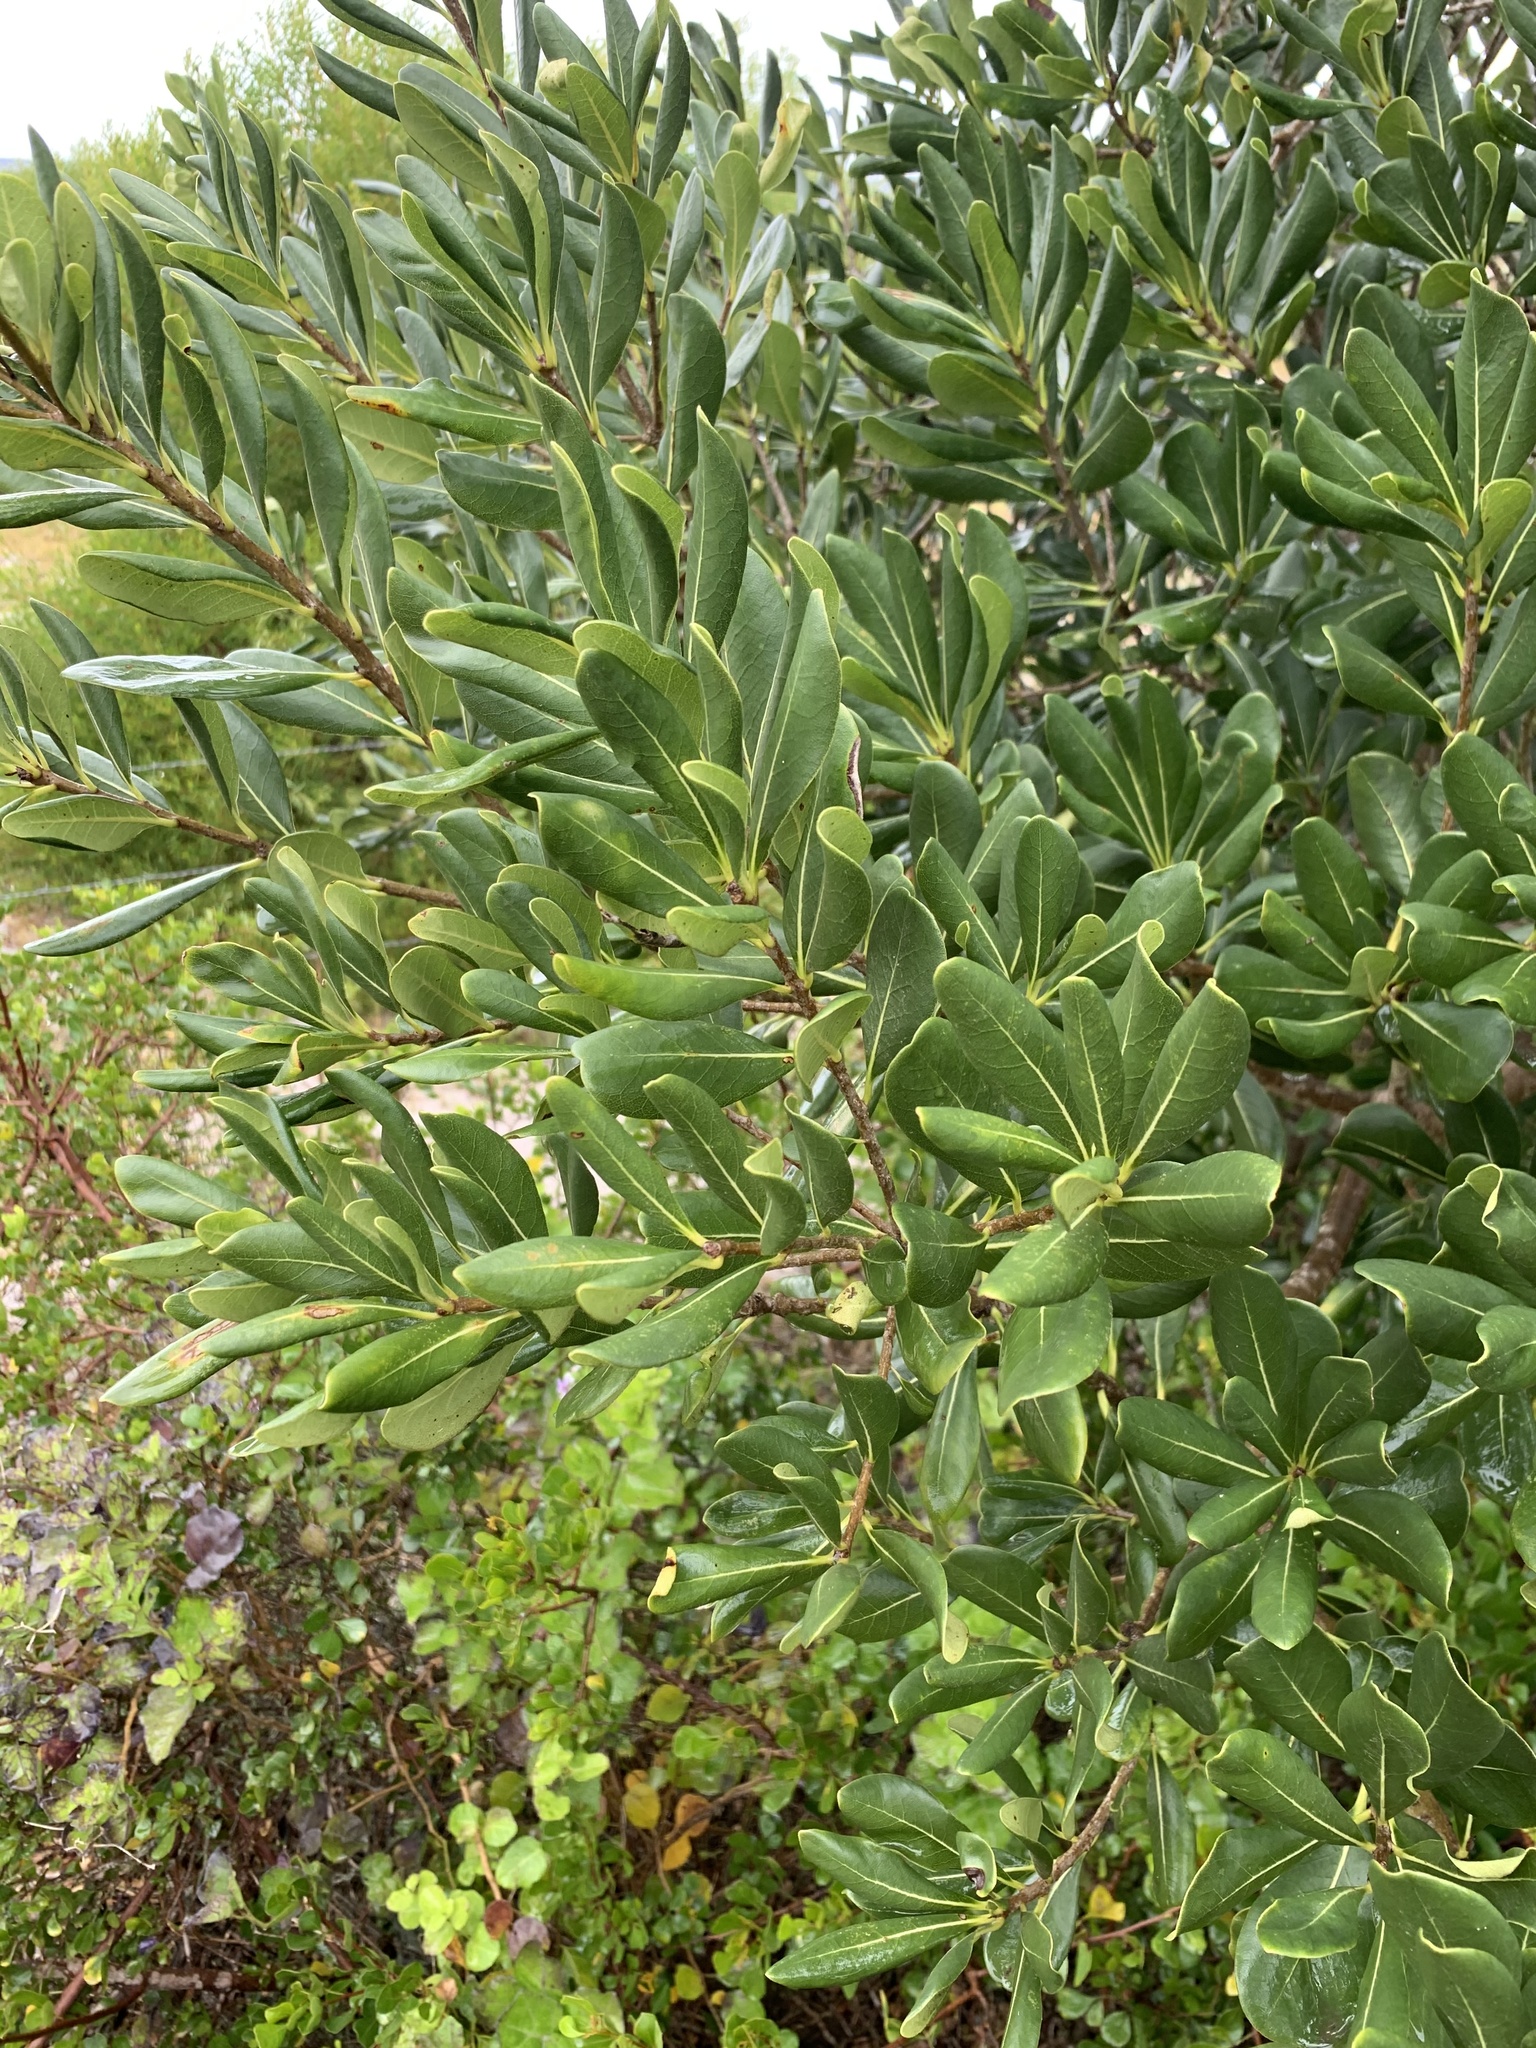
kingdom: Plantae
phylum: Tracheophyta
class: Magnoliopsida
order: Apiales
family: Pittosporaceae
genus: Pittosporum
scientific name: Pittosporum viridiflorum
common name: Cape cheesewood
